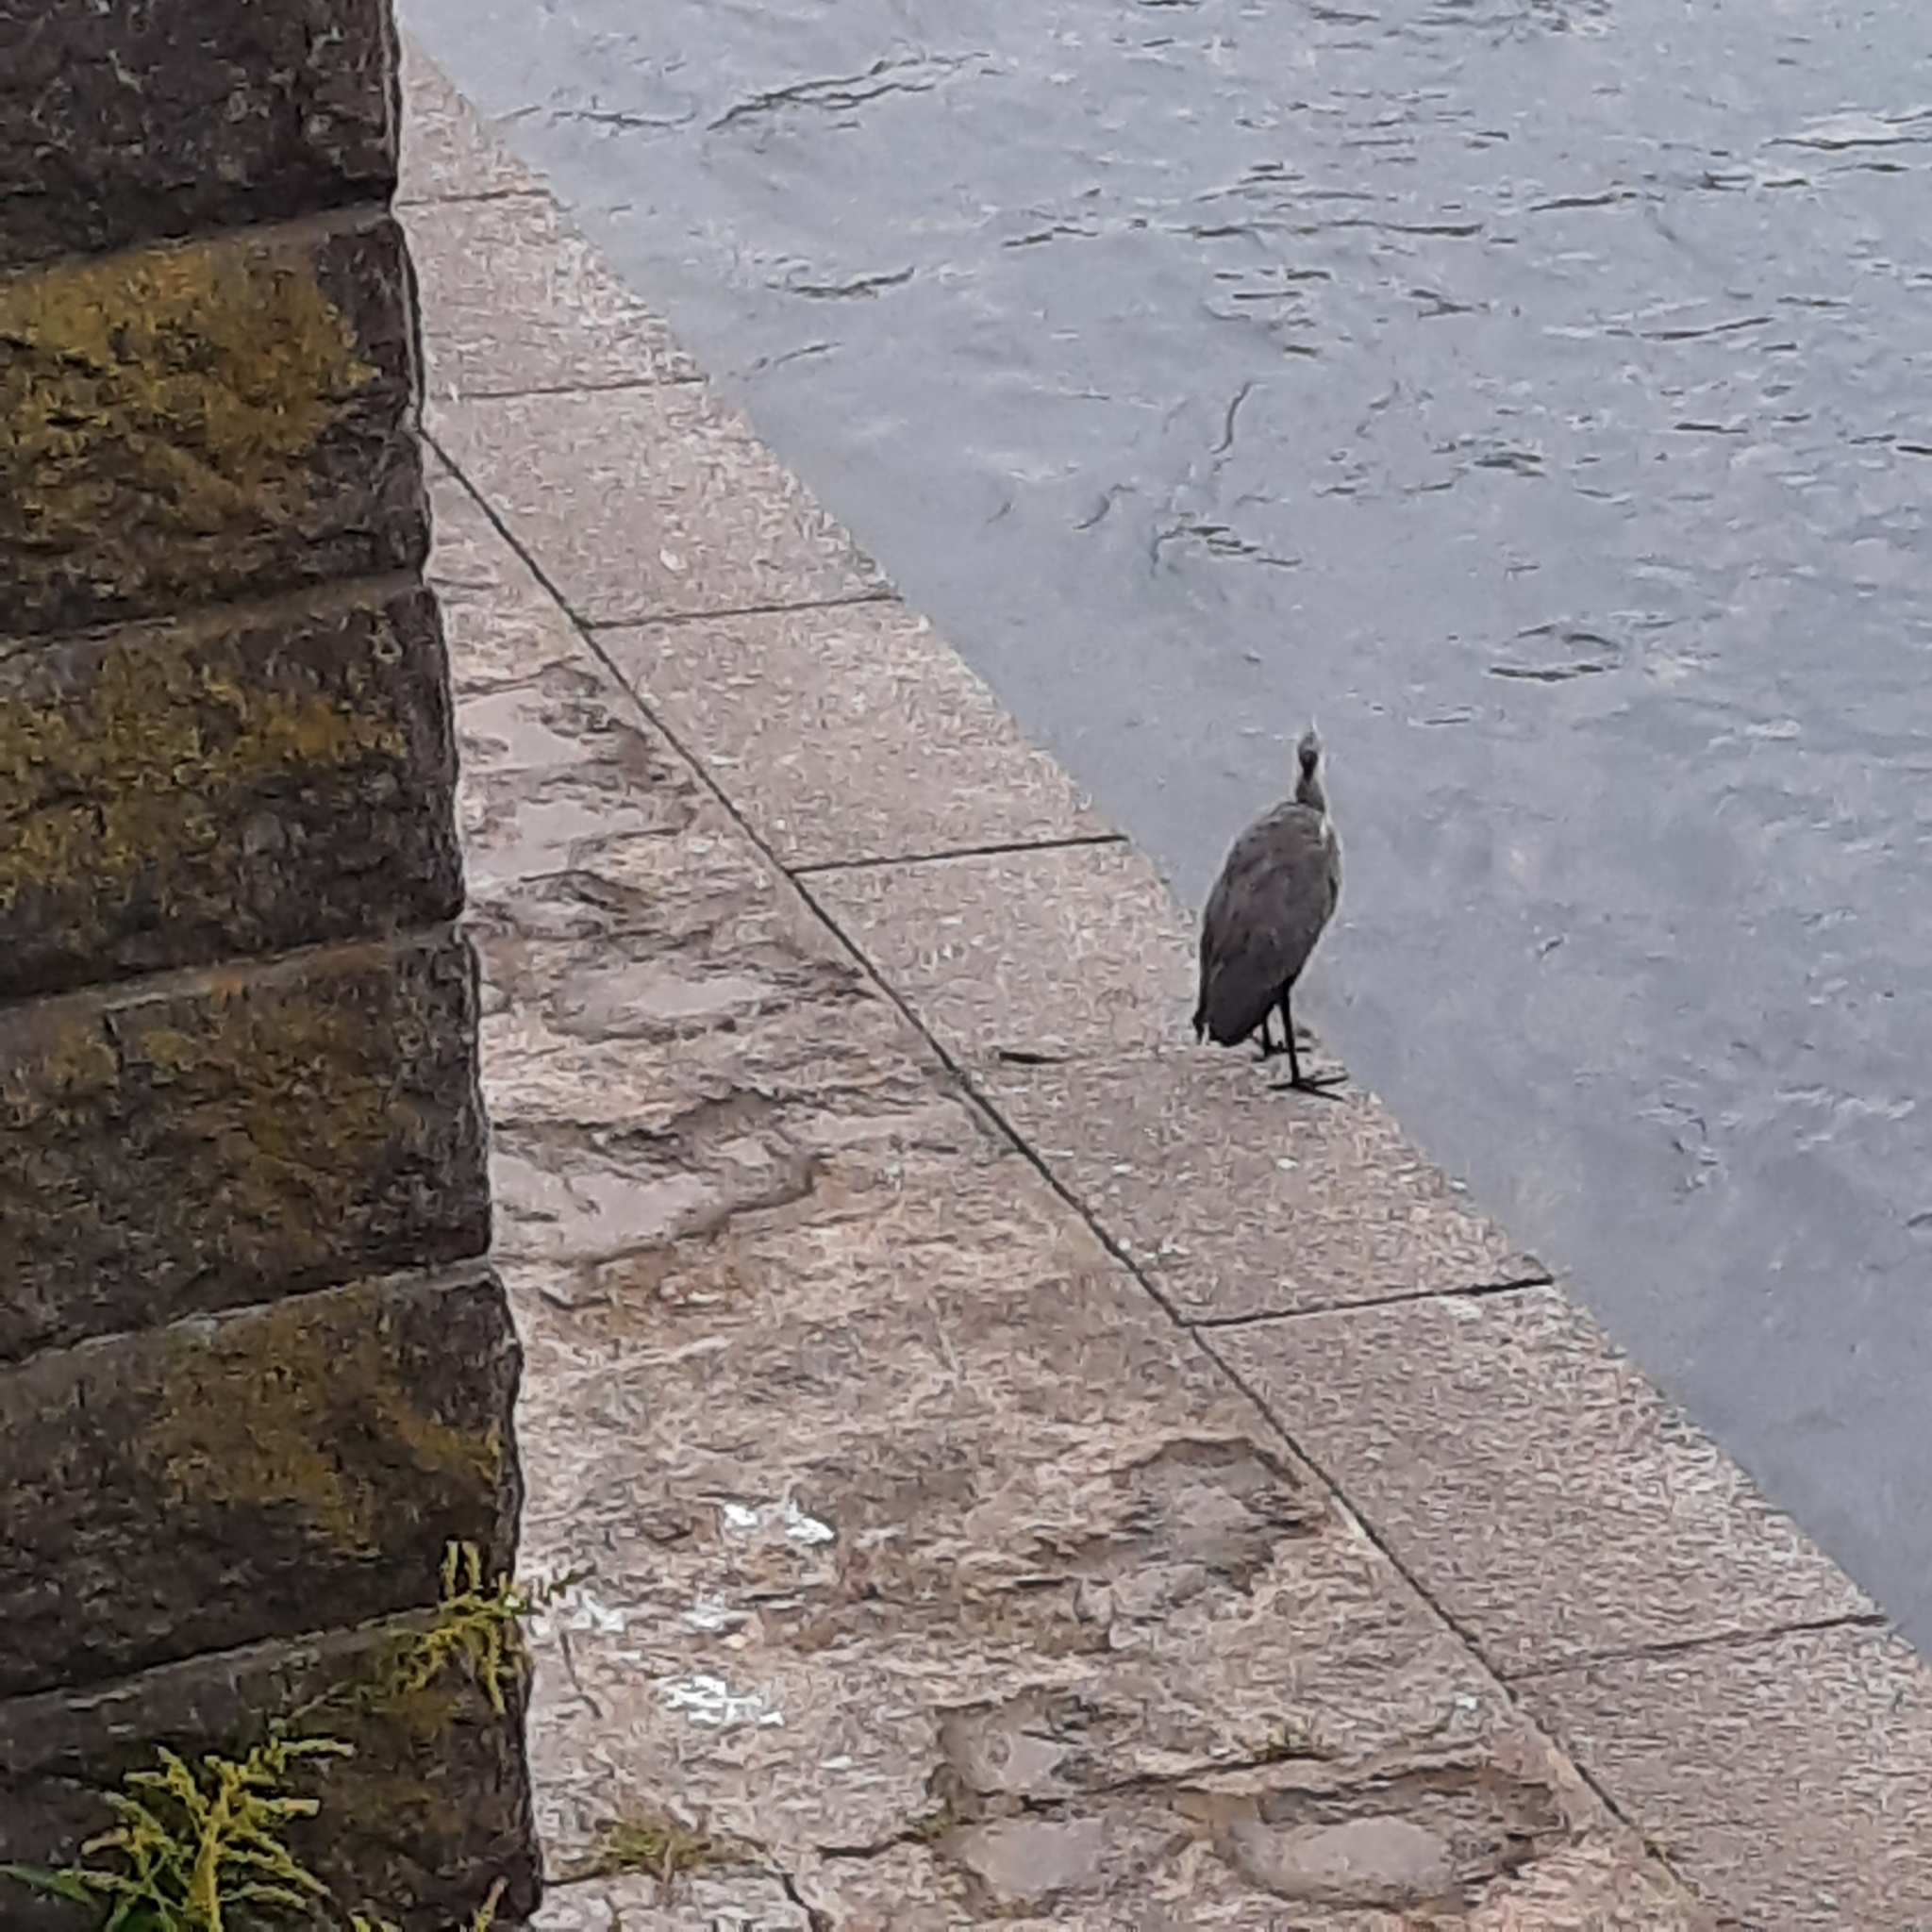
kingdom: Animalia
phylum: Chordata
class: Aves
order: Pelecaniformes
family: Ardeidae
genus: Ardea
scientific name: Ardea cinerea
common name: Grey heron
